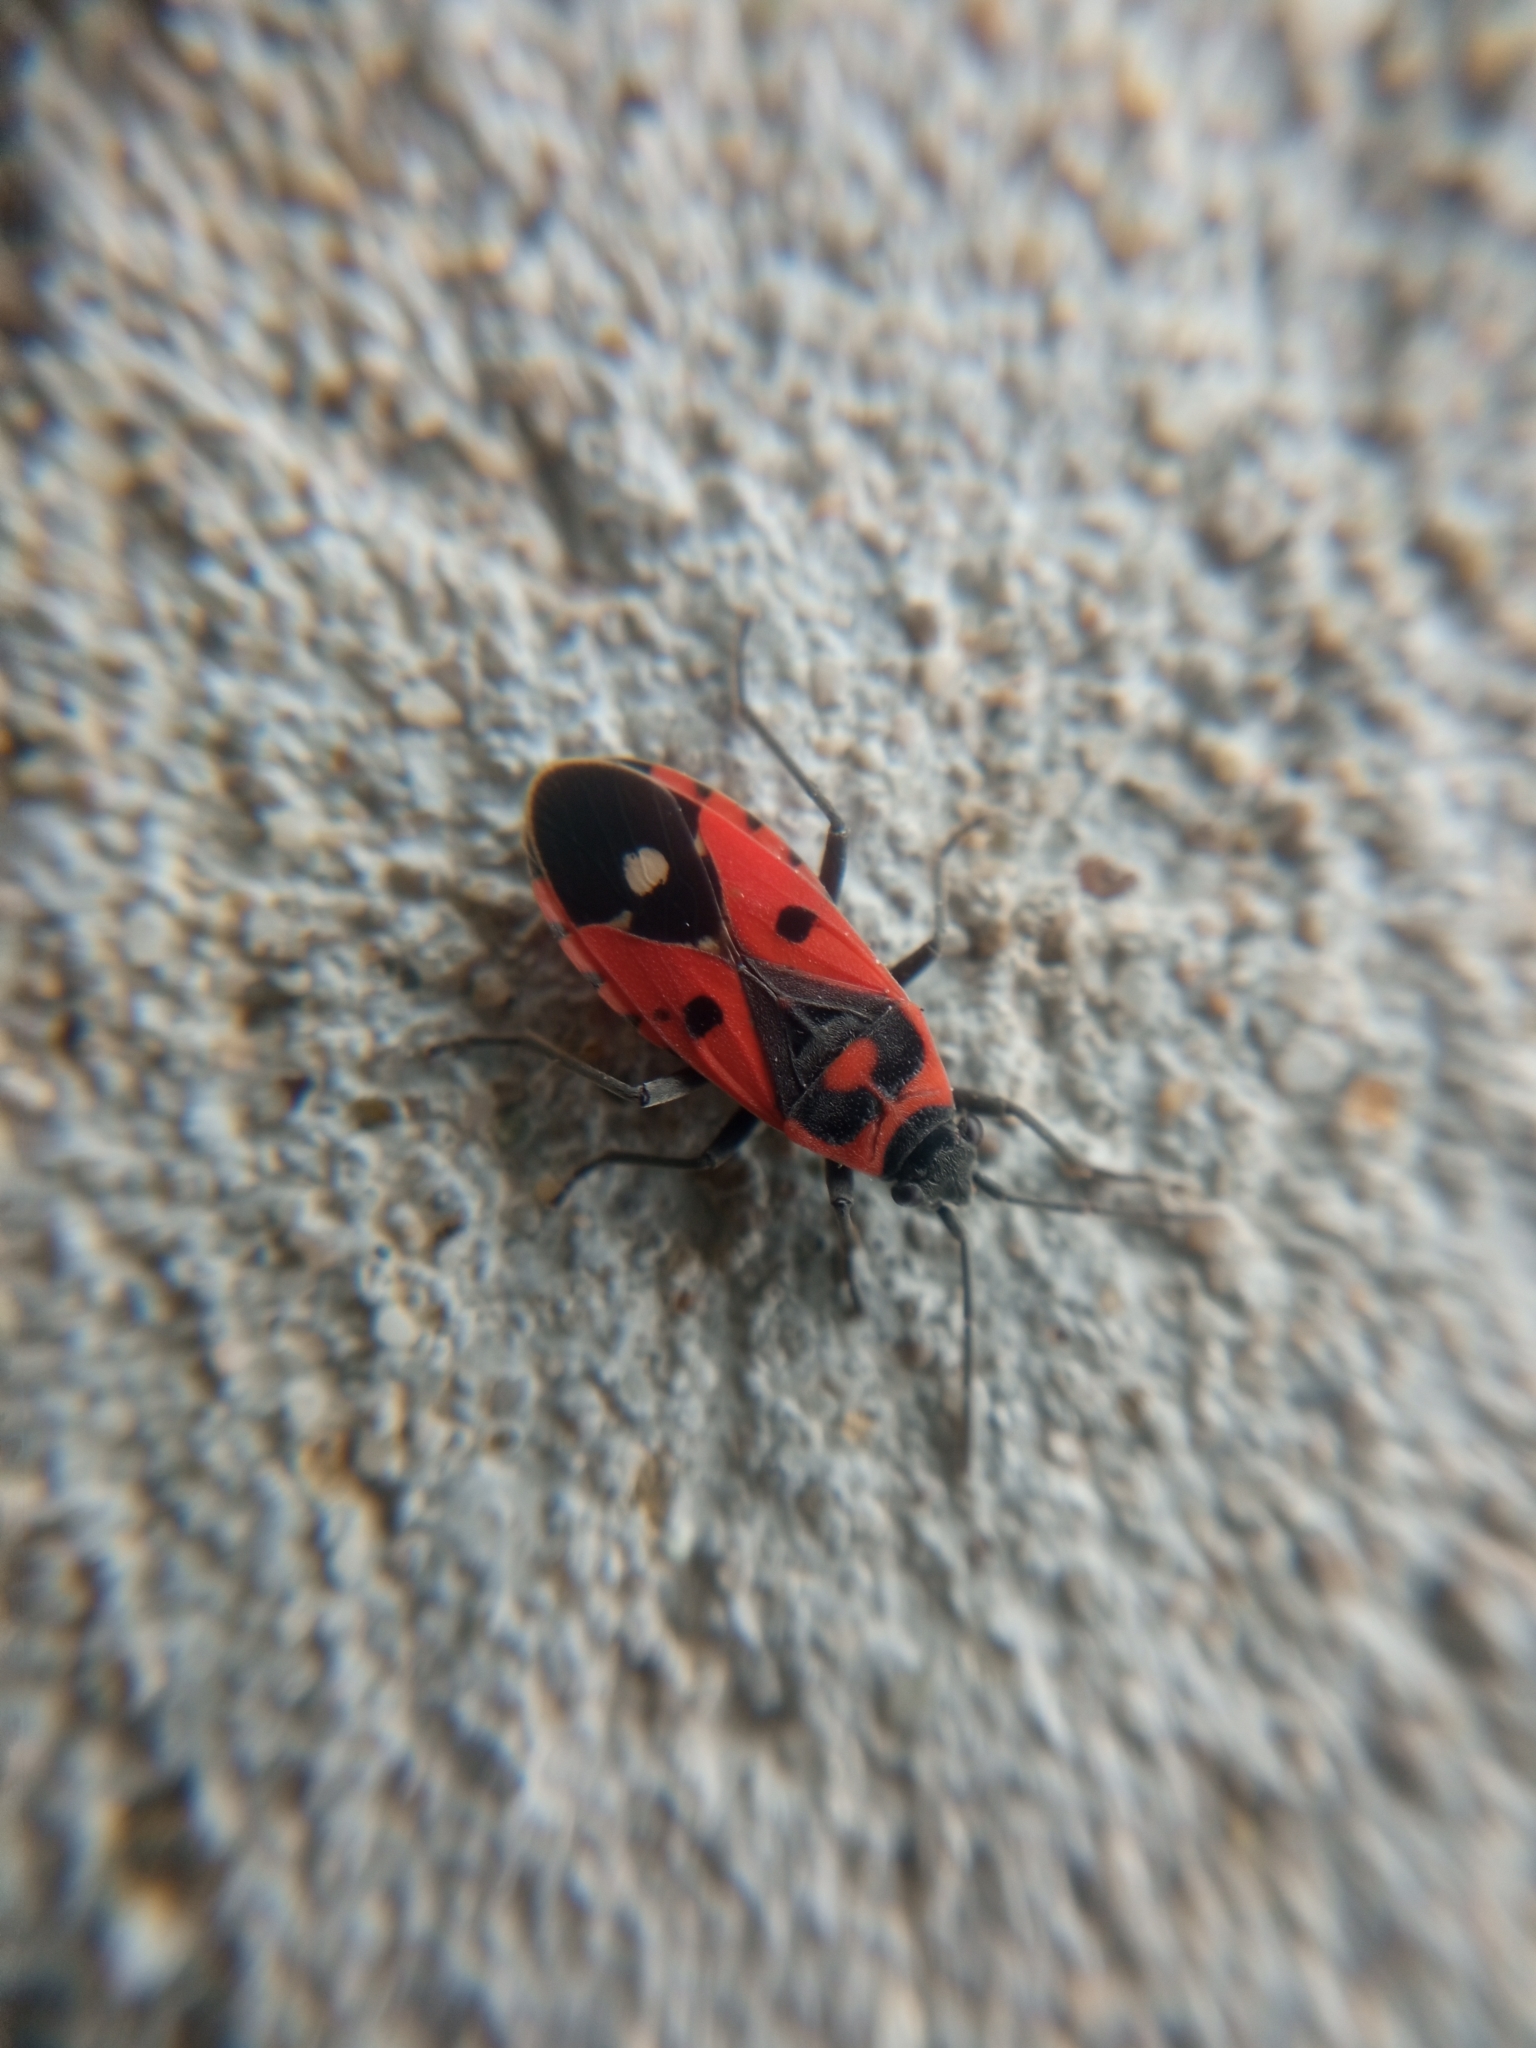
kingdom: Animalia
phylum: Arthropoda
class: Insecta
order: Hemiptera
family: Lygaeidae
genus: Melanocoryphus
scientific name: Melanocoryphus albomaculatus
